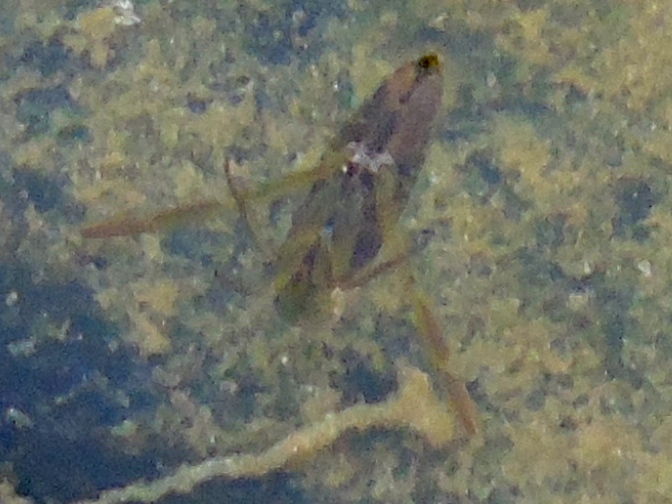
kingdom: Animalia
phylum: Arthropoda
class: Insecta
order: Hemiptera
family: Notonectidae
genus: Notonecta
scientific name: Notonecta
